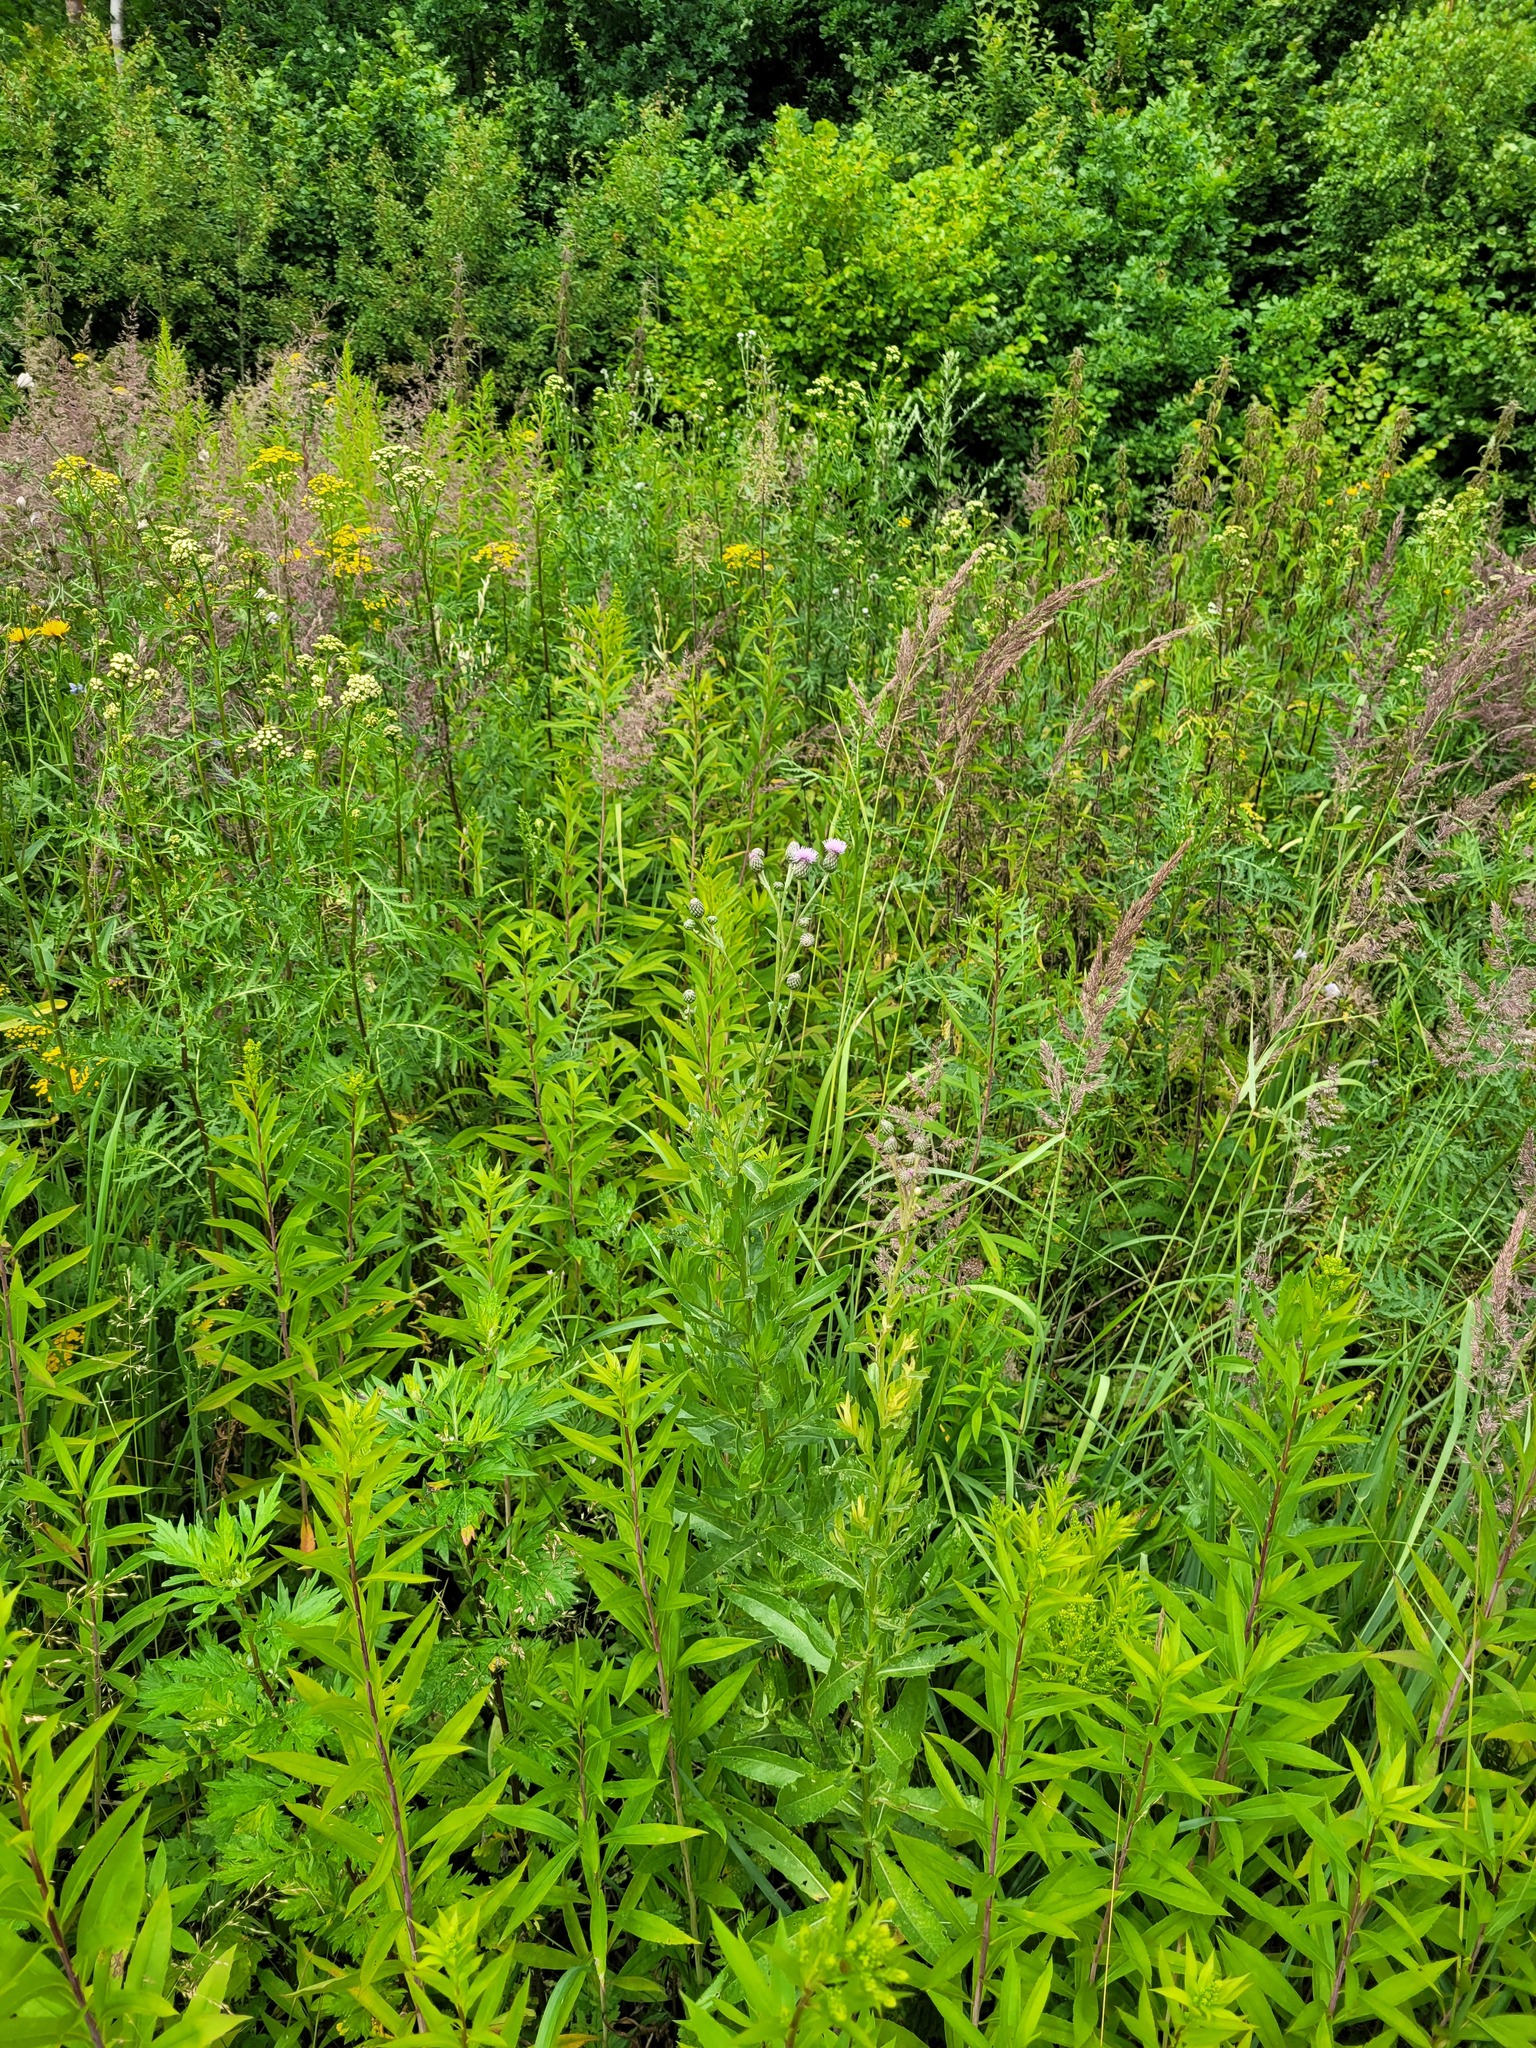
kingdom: Plantae
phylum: Tracheophyta
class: Magnoliopsida
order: Asterales
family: Asteraceae
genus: Cirsium
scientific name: Cirsium arvense
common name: Creeping thistle
